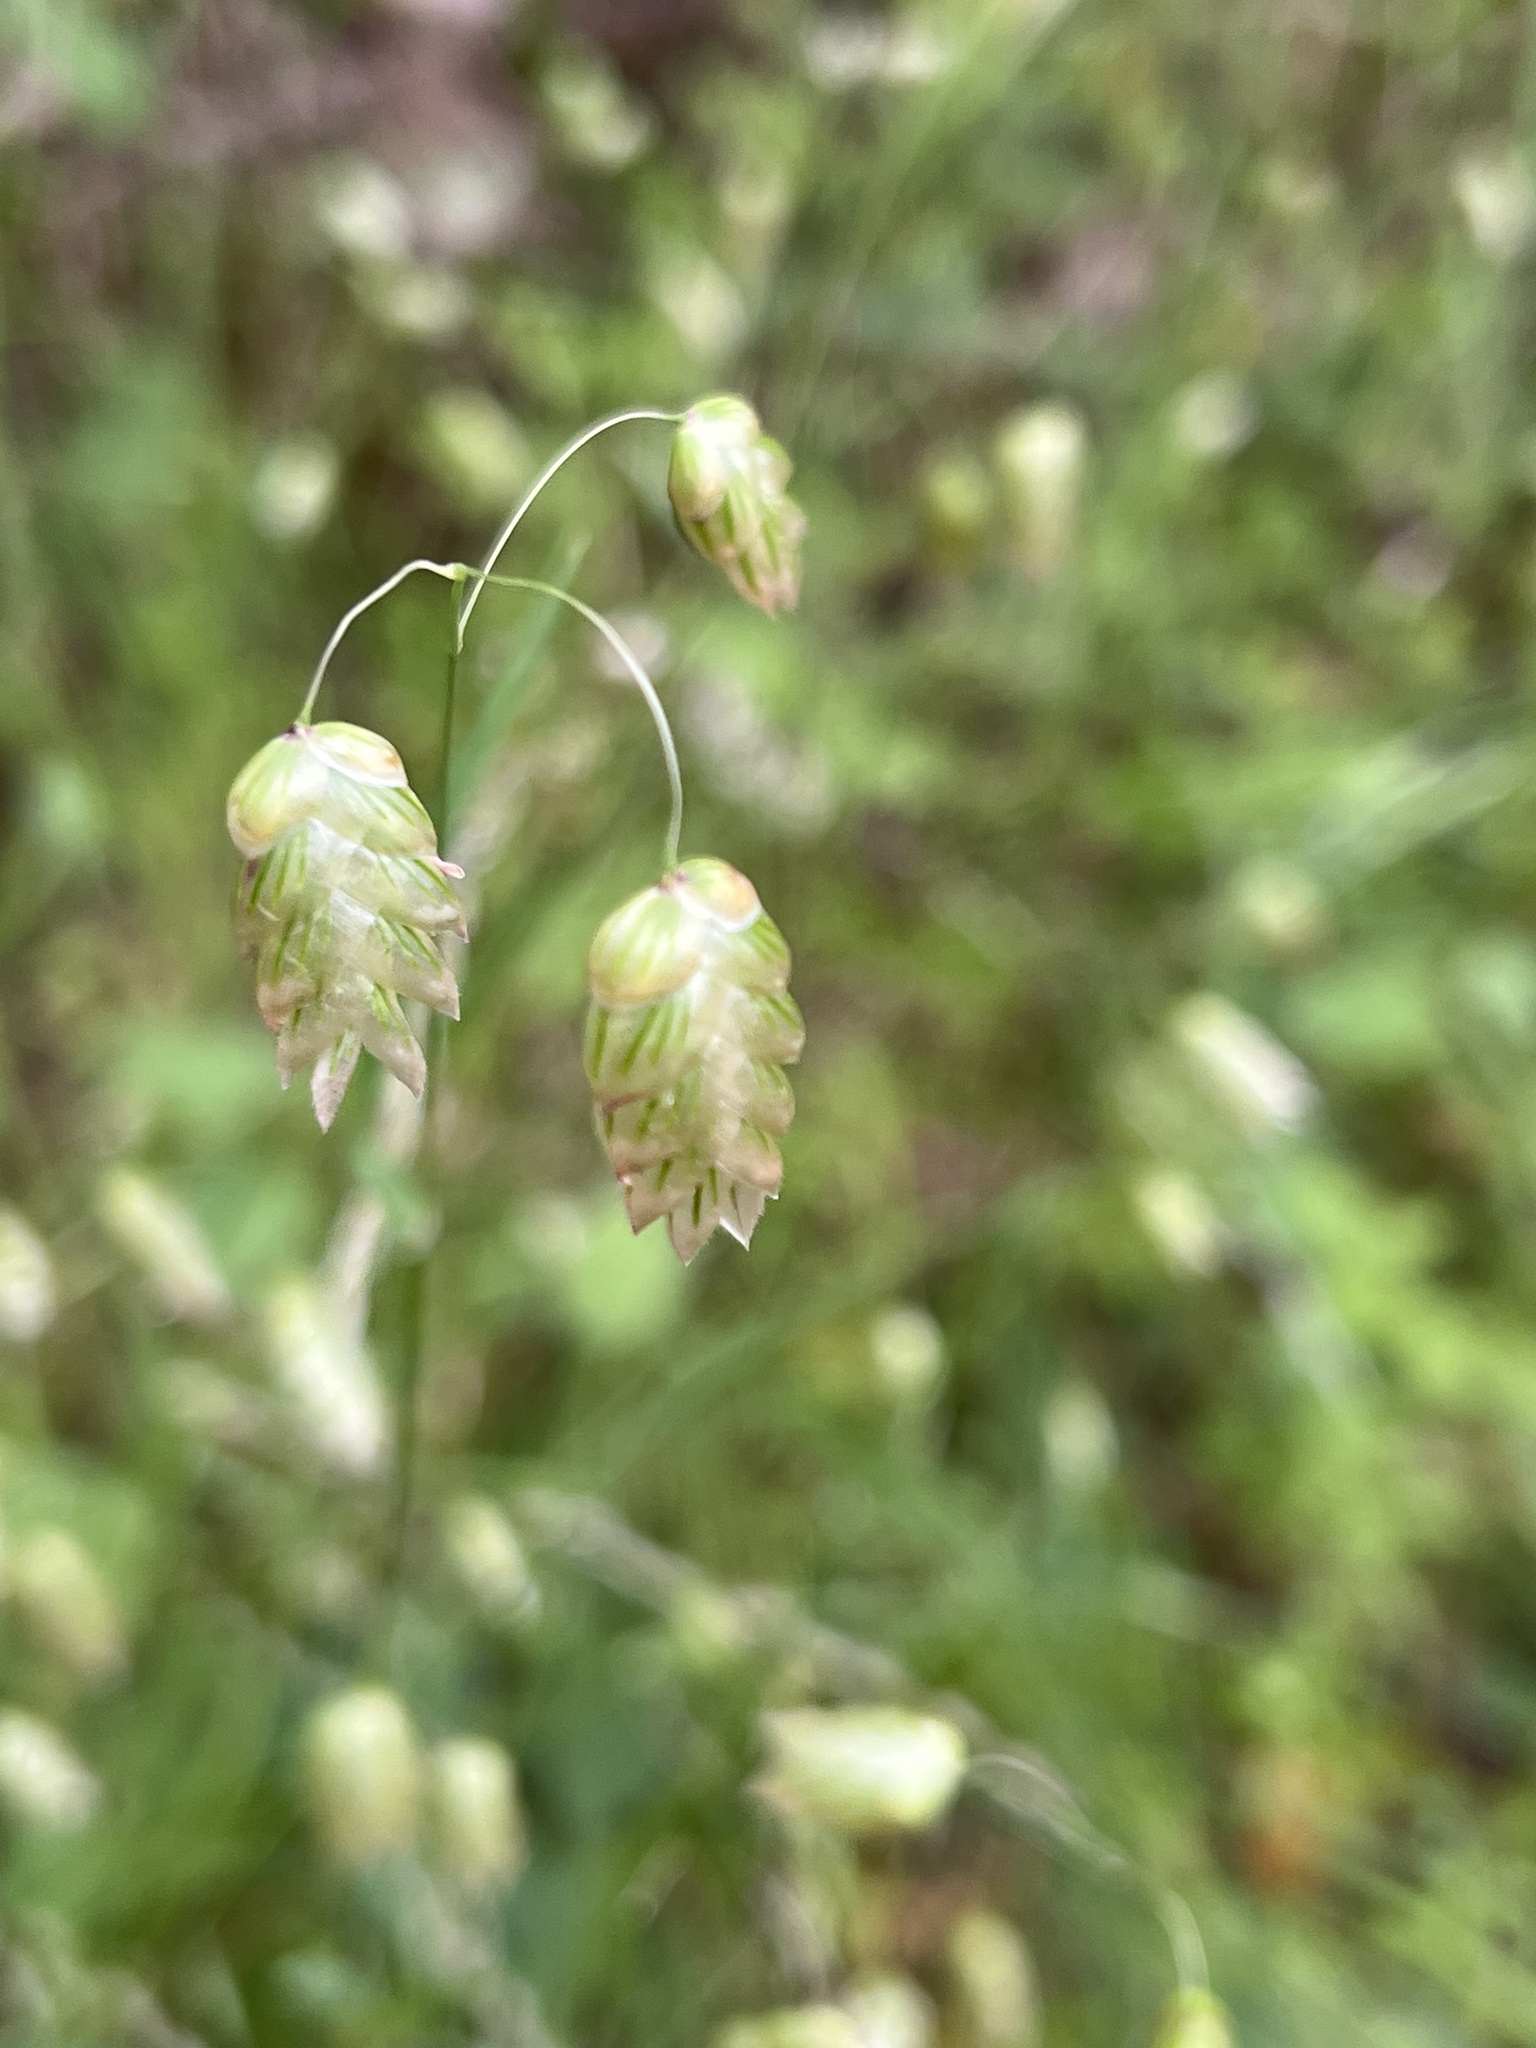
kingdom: Plantae
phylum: Tracheophyta
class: Liliopsida
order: Poales
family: Poaceae
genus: Briza
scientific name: Briza maxima
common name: Big quakinggrass
